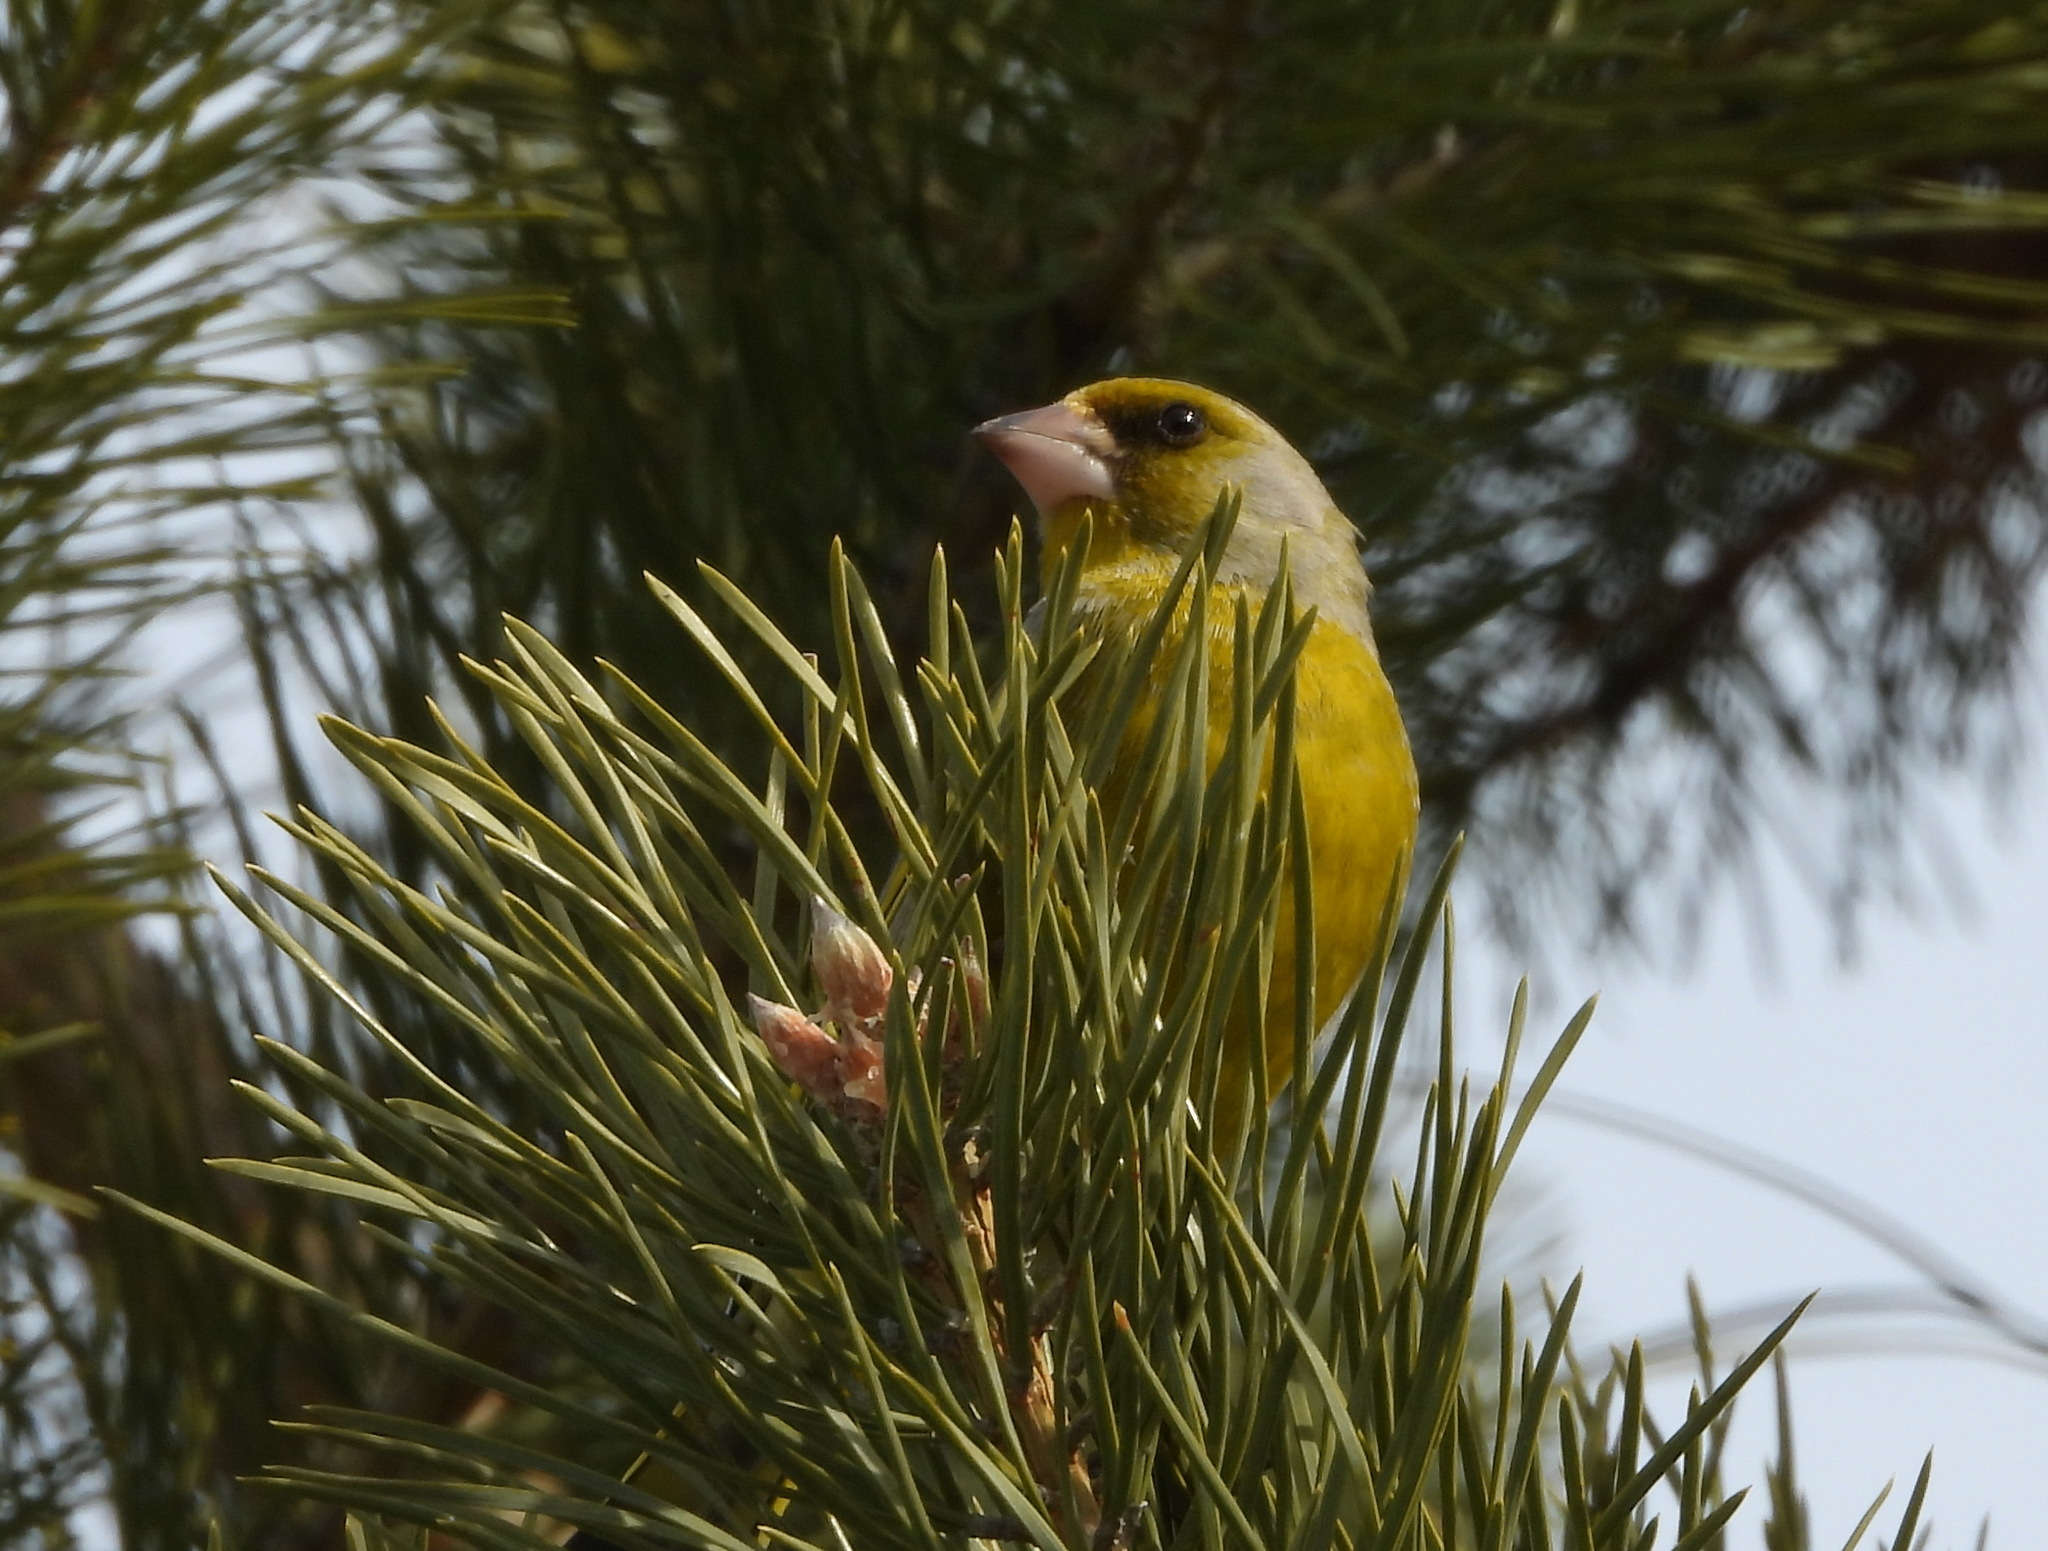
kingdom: Plantae
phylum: Tracheophyta
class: Liliopsida
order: Poales
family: Poaceae
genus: Chloris
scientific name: Chloris chloris
